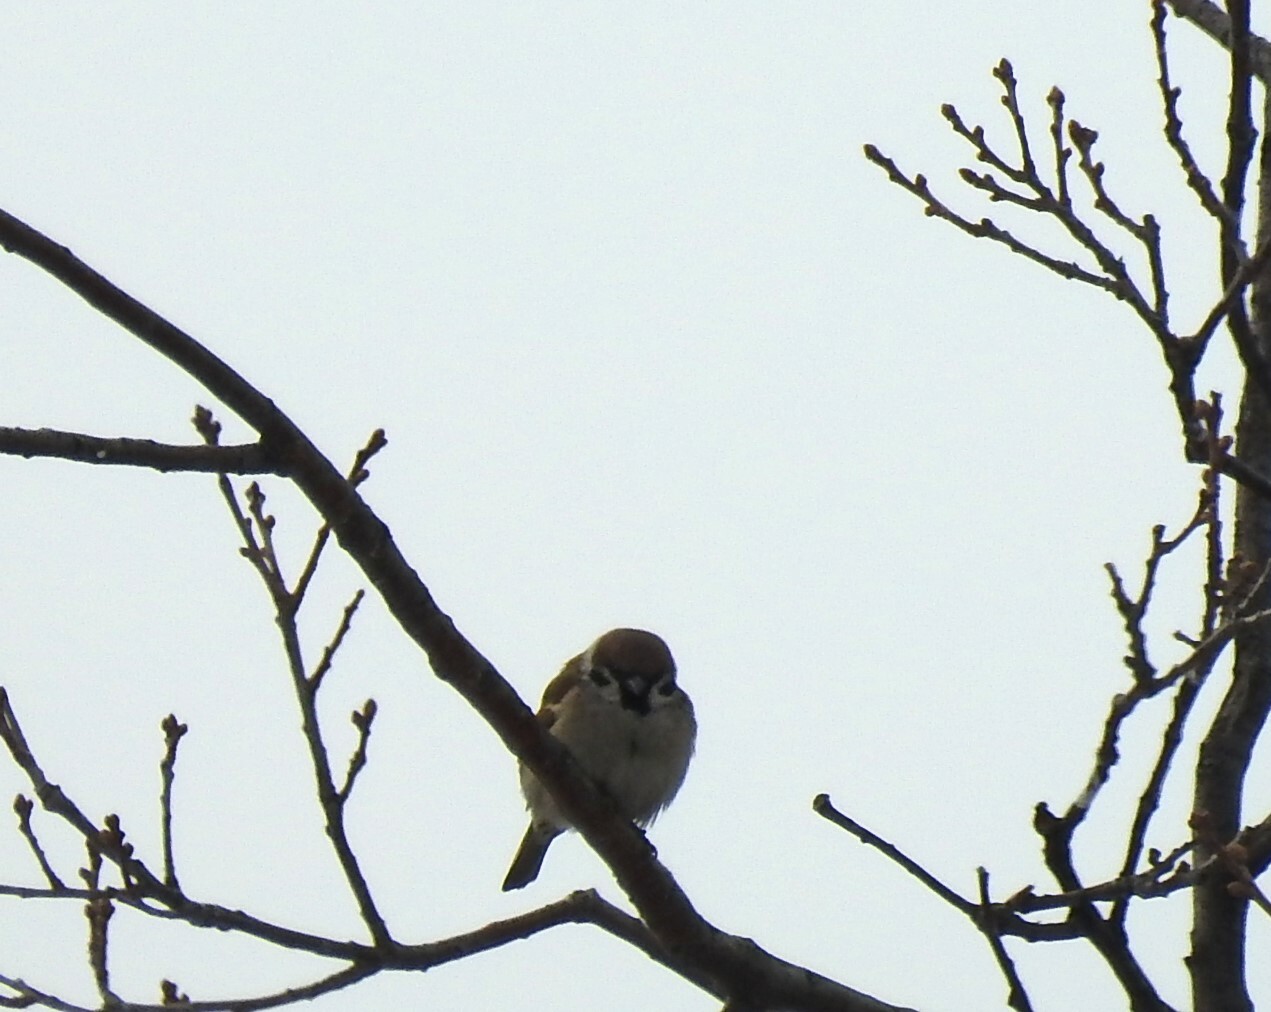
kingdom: Animalia
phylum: Chordata
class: Aves
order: Passeriformes
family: Passeridae
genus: Passer
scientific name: Passer montanus
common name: Eurasian tree sparrow
